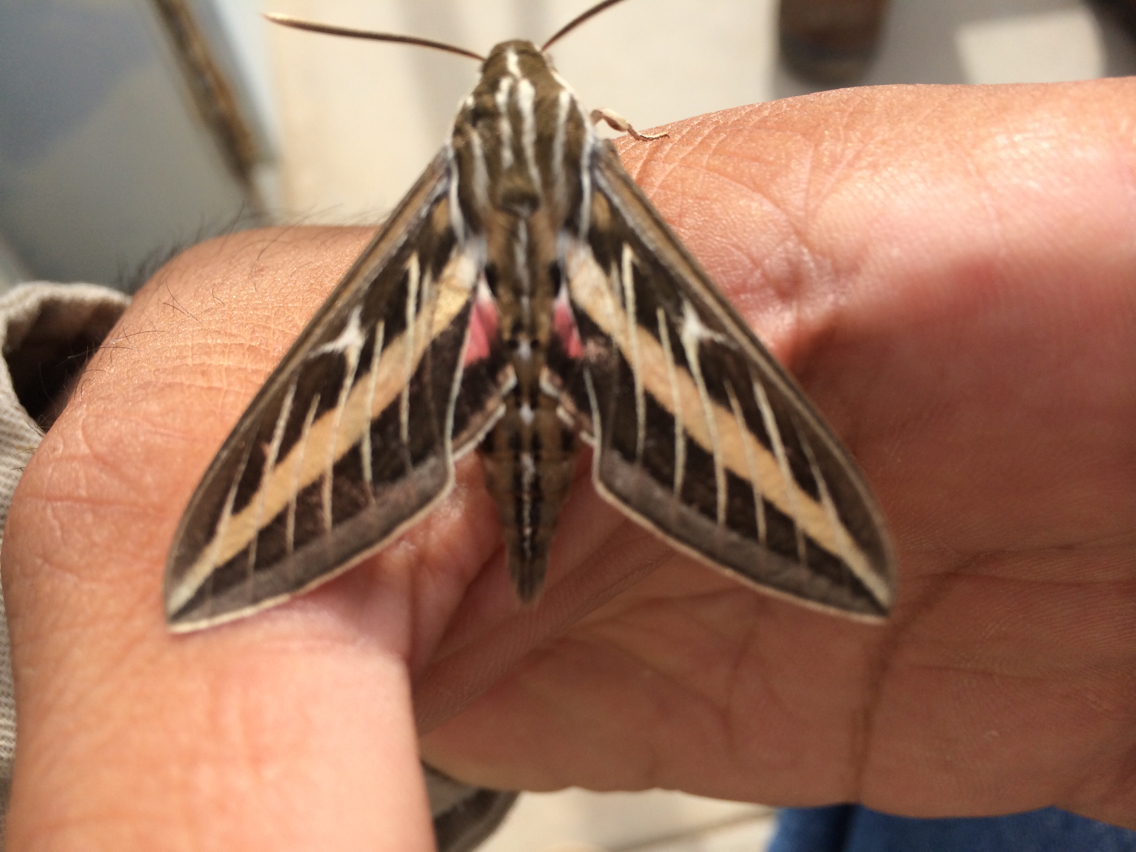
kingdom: Animalia
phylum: Arthropoda
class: Insecta
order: Lepidoptera
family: Sphingidae
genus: Hyles
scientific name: Hyles lineata
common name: White-lined sphinx
